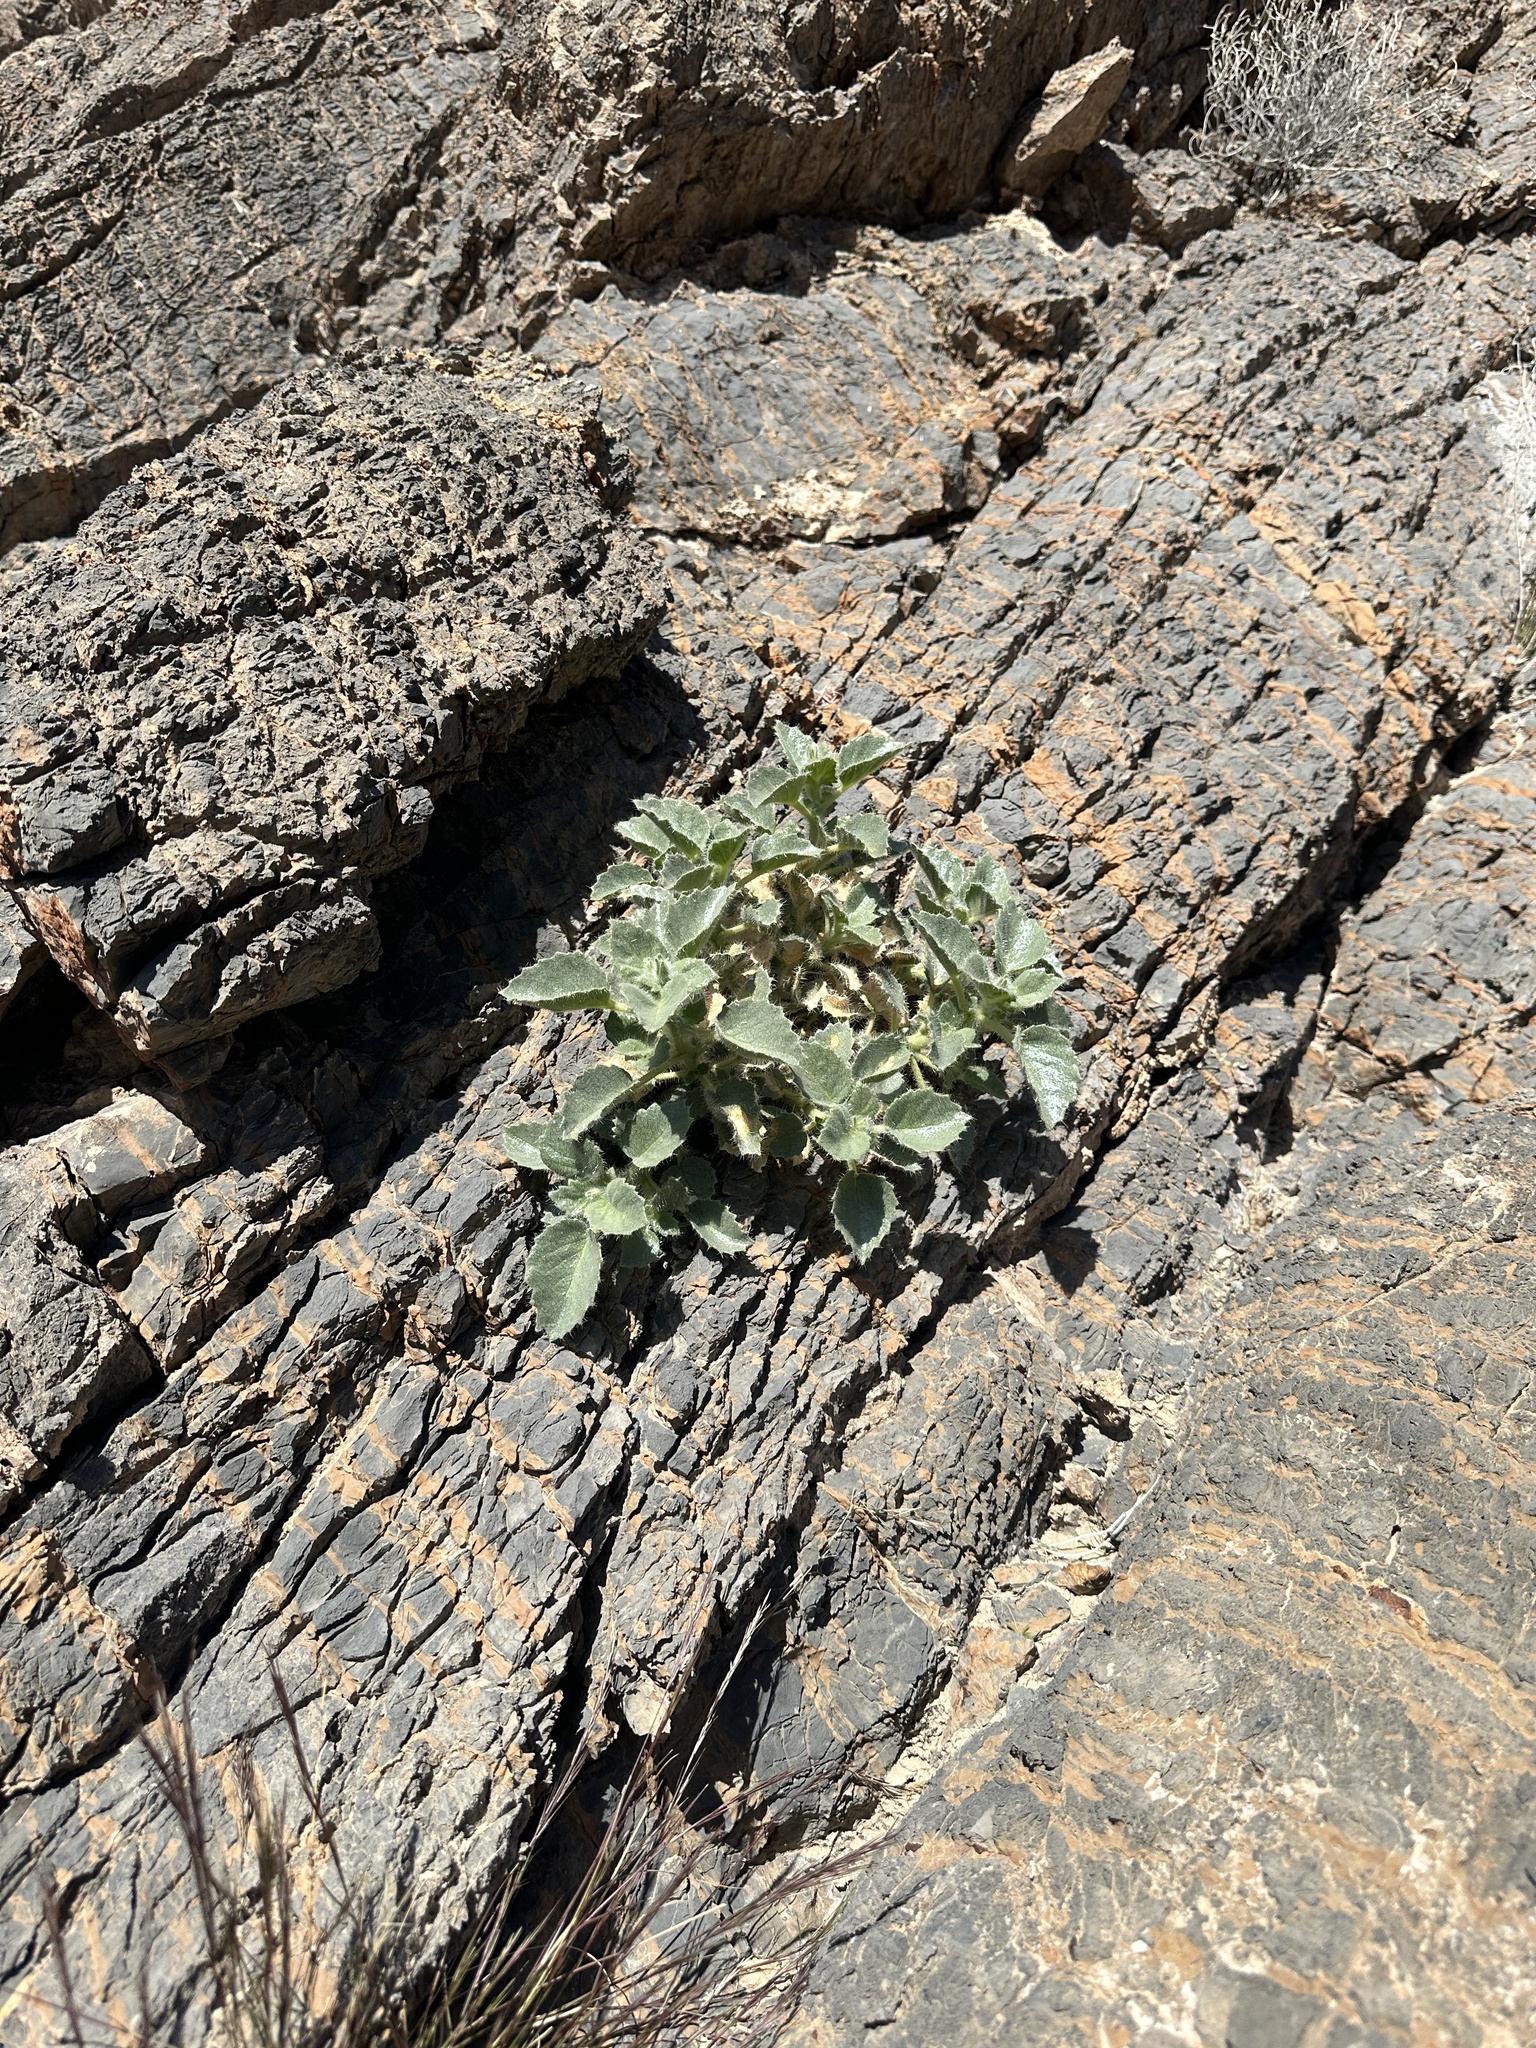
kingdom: Plantae
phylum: Tracheophyta
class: Magnoliopsida
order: Cornales
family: Loasaceae
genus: Eucnide
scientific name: Eucnide urens
